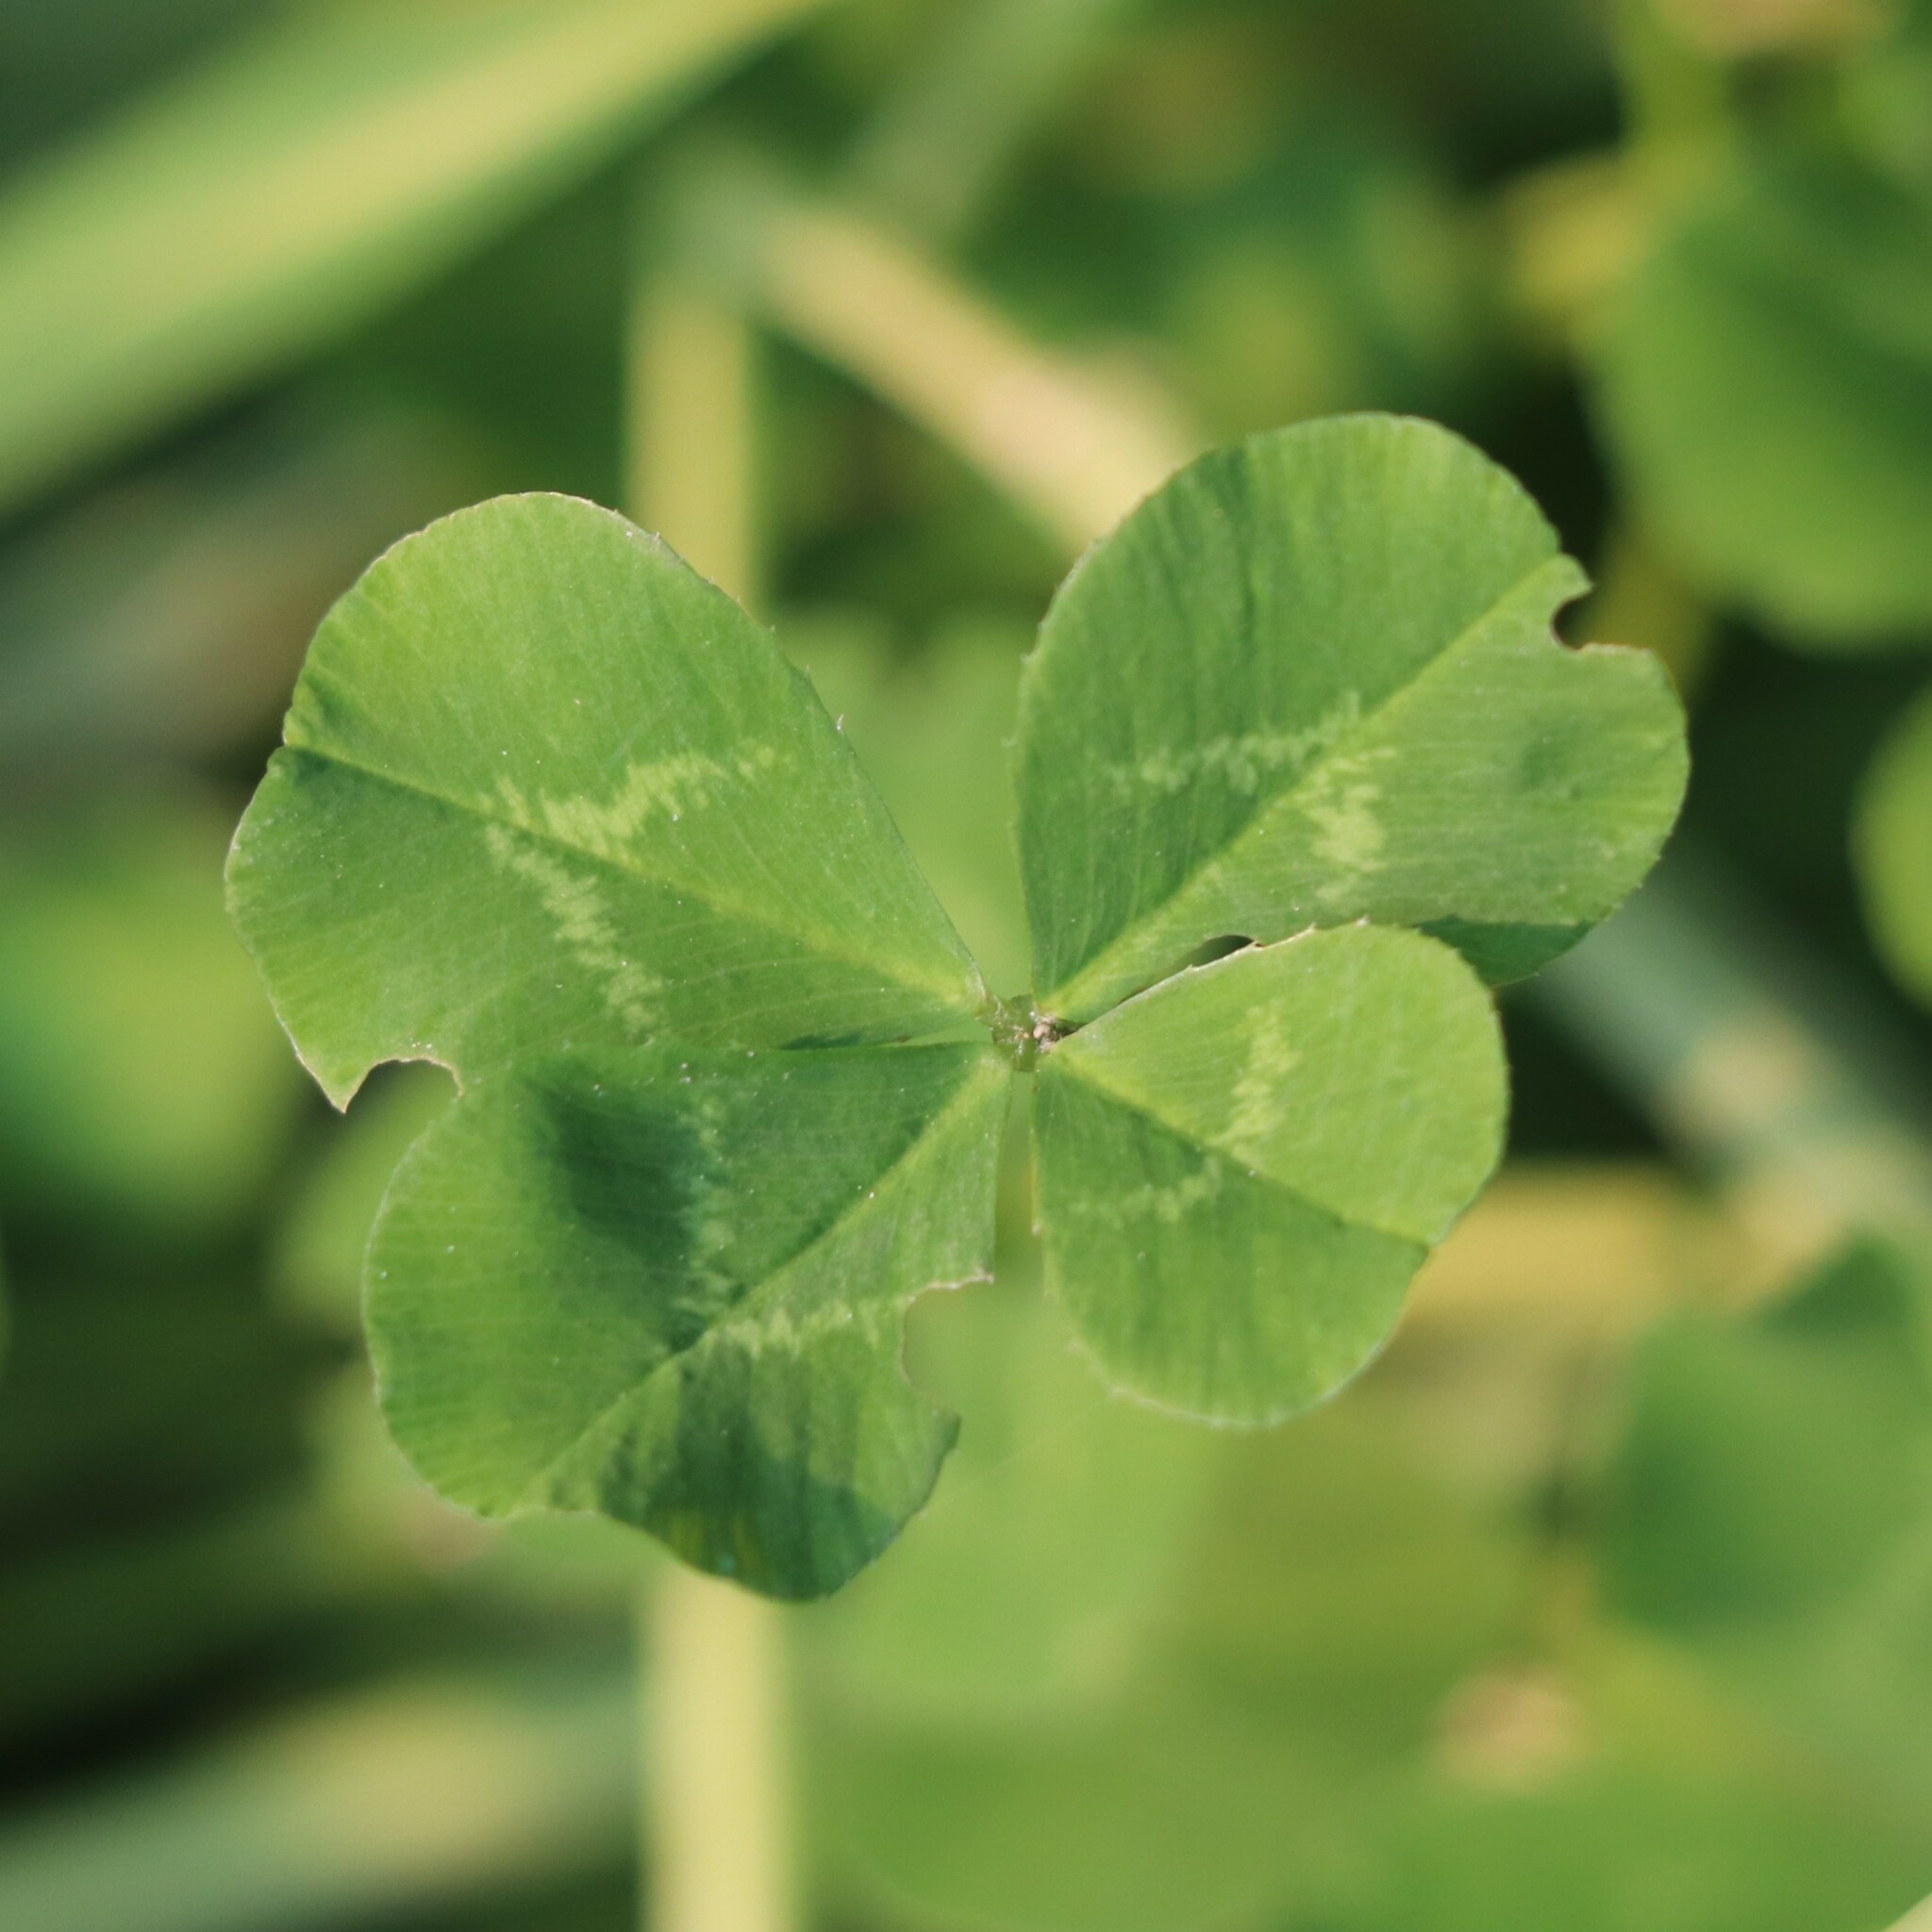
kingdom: Plantae
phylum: Tracheophyta
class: Magnoliopsida
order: Fabales
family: Fabaceae
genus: Trifolium
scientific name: Trifolium repens
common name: White clover
